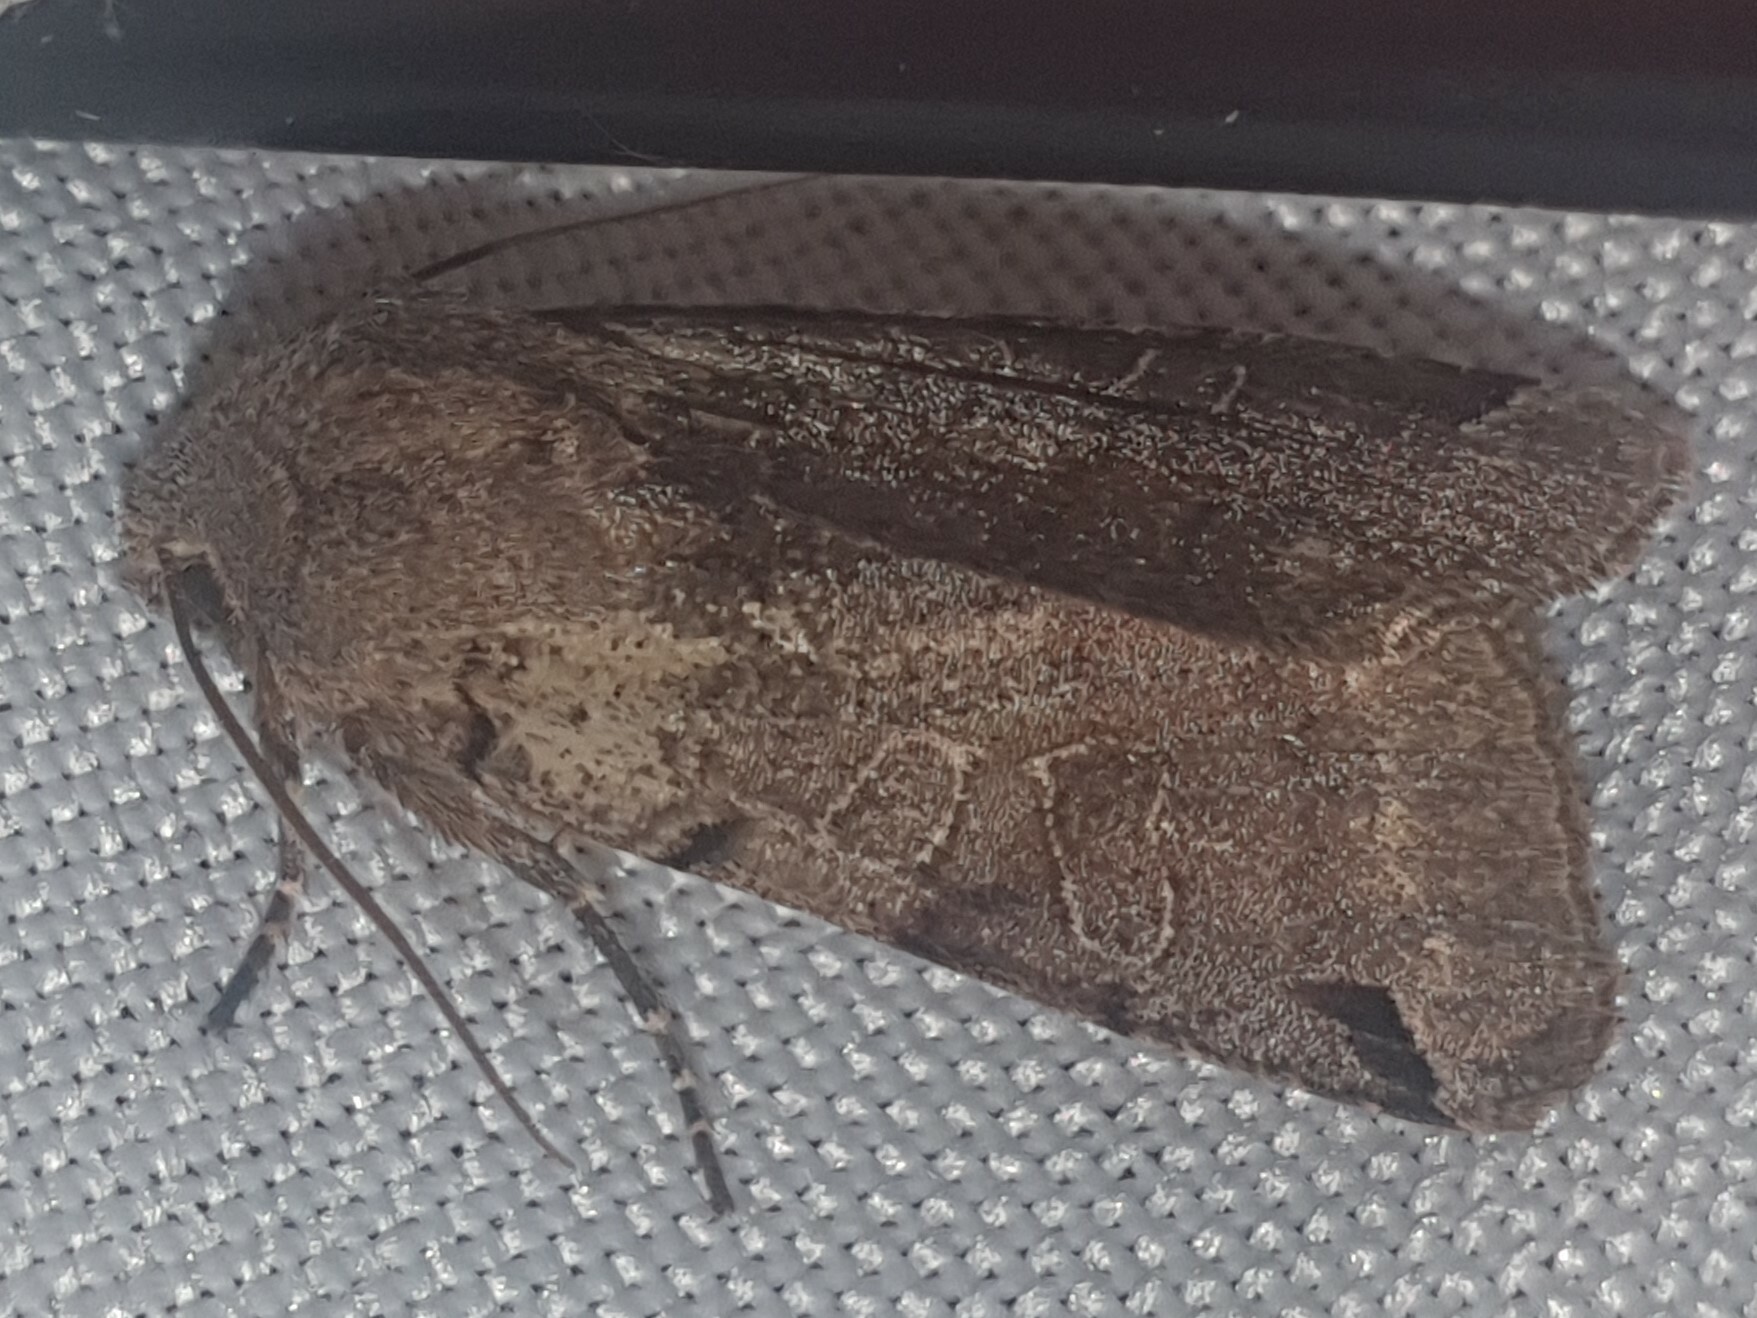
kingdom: Animalia
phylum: Arthropoda
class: Insecta
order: Lepidoptera
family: Noctuidae
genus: Agrochola
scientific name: Agrochola litura
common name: Brown-spot pinion
